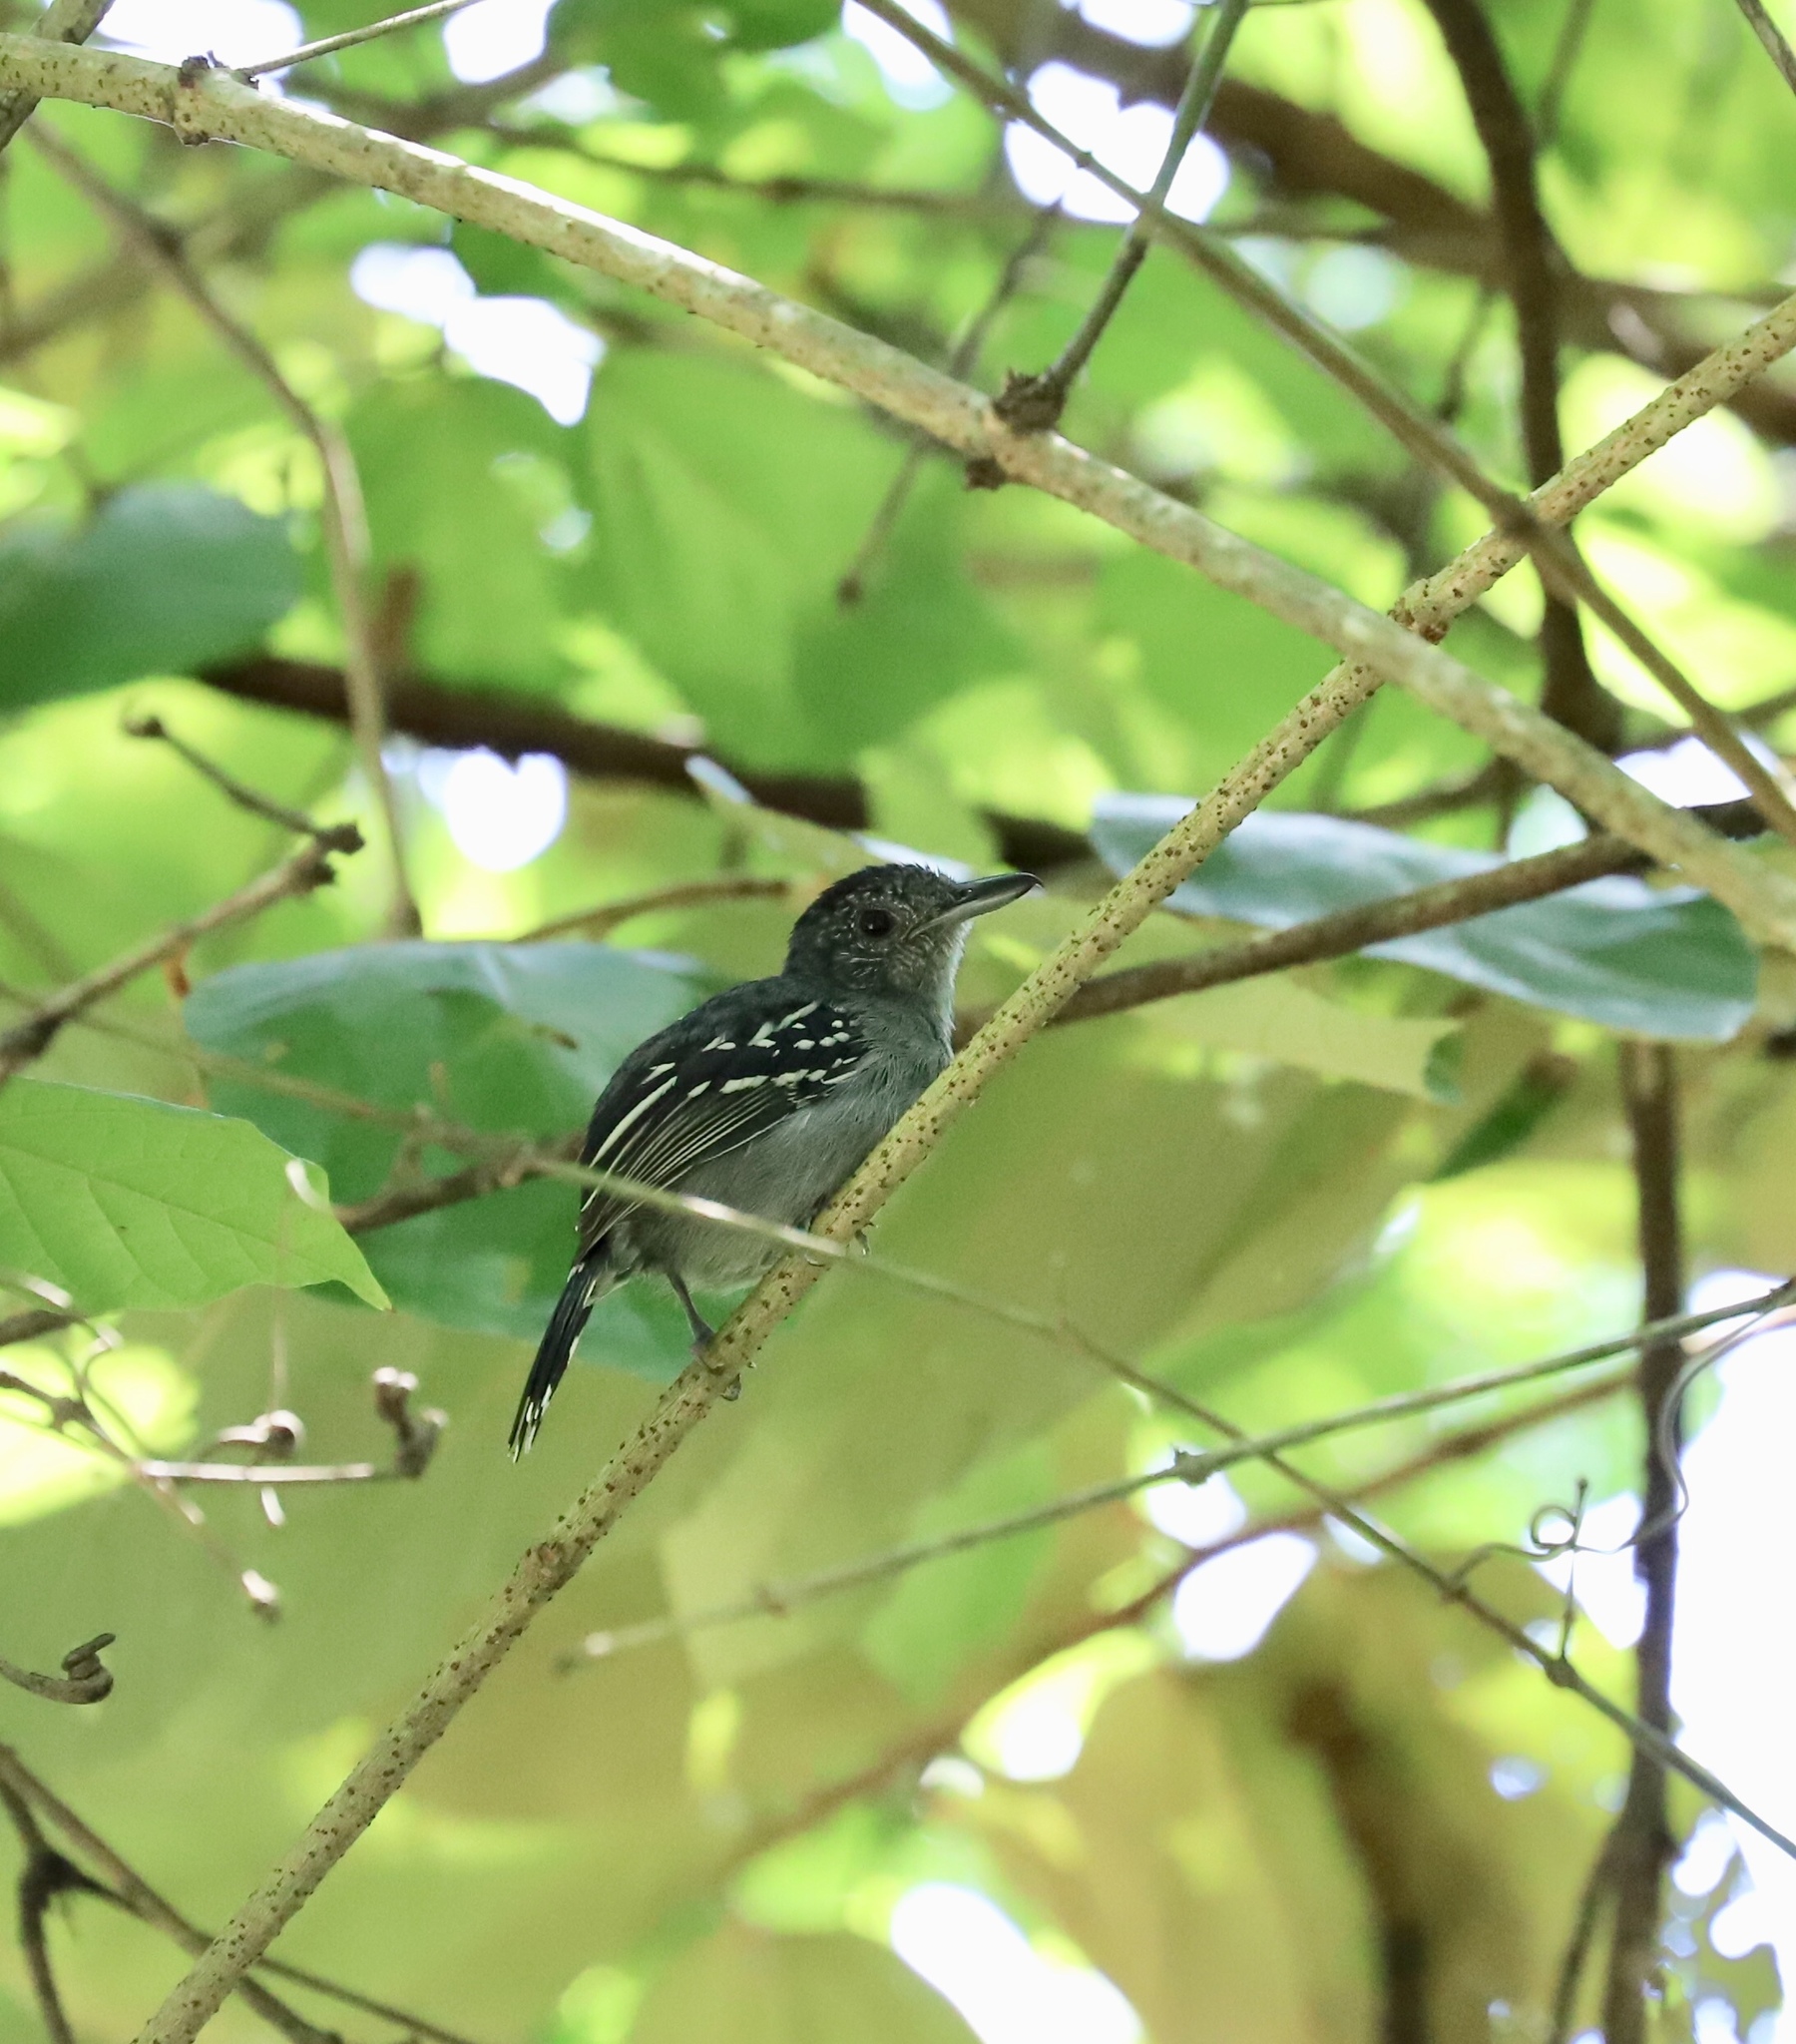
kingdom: Animalia
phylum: Chordata
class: Aves
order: Passeriformes
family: Thamnophilidae
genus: Thamnophilus
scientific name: Thamnophilus atrinucha
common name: Black-crowned antshrike
